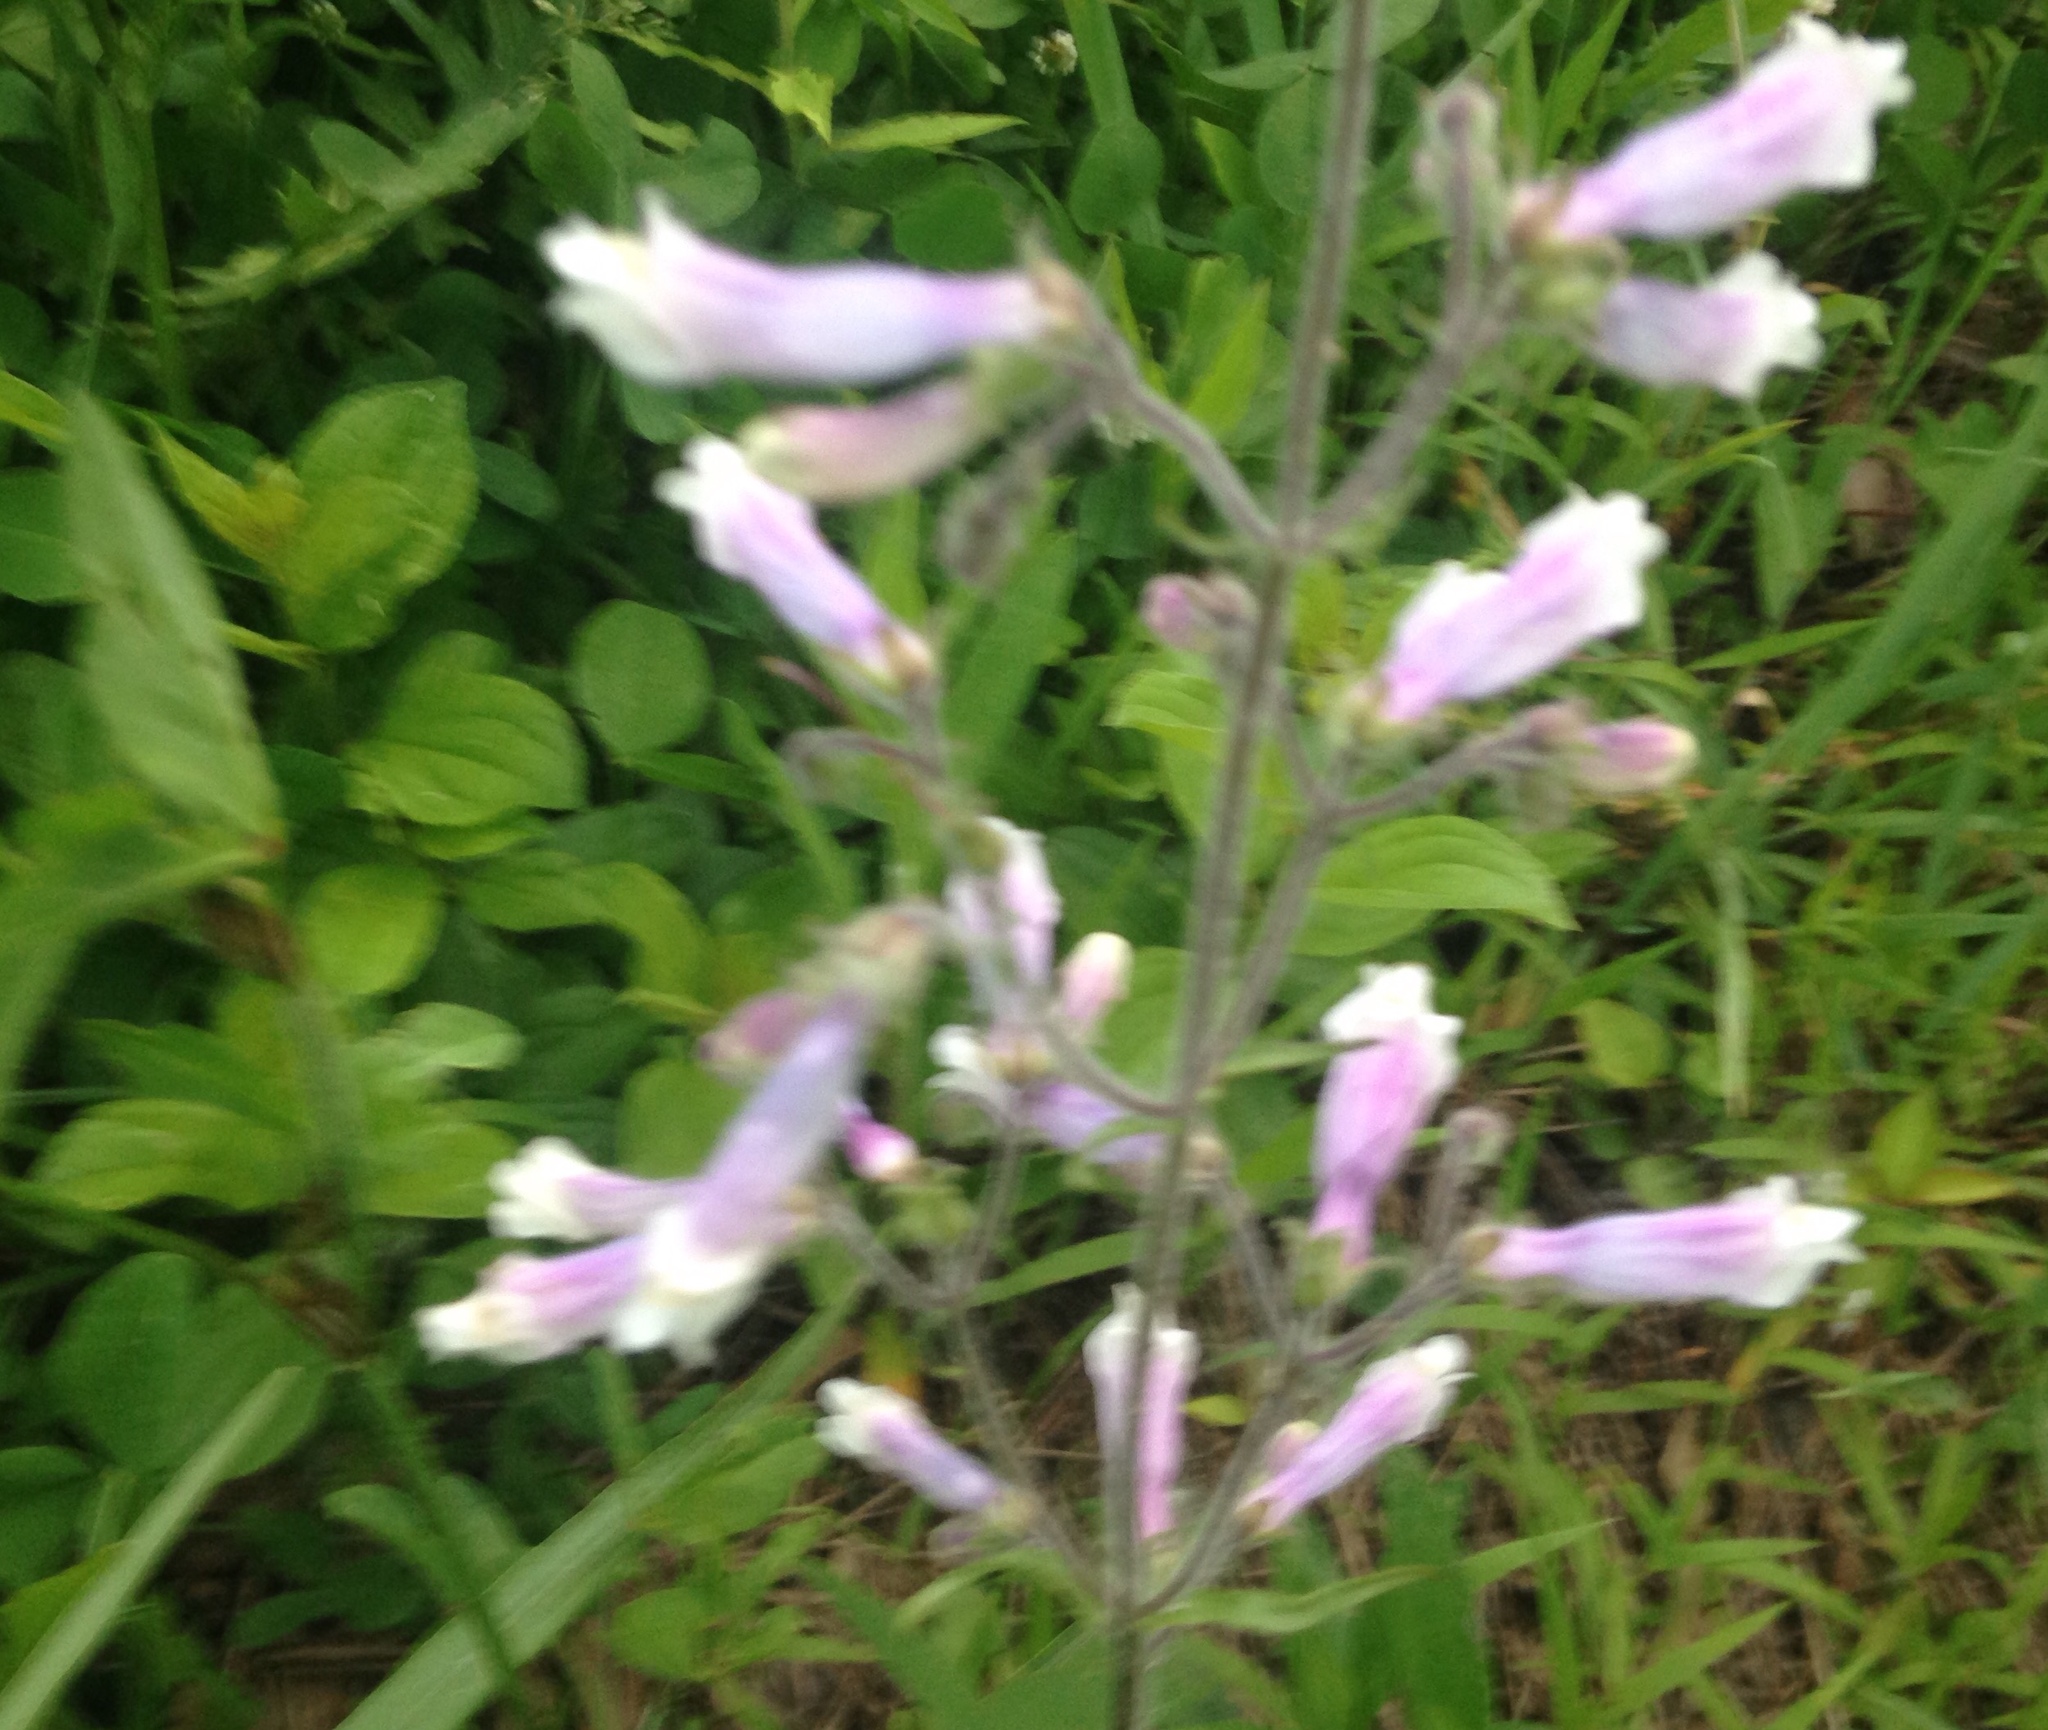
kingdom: Plantae
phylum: Tracheophyta
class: Magnoliopsida
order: Lamiales
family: Plantaginaceae
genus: Penstemon
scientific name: Penstemon pallidus
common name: Pale beardtongue
